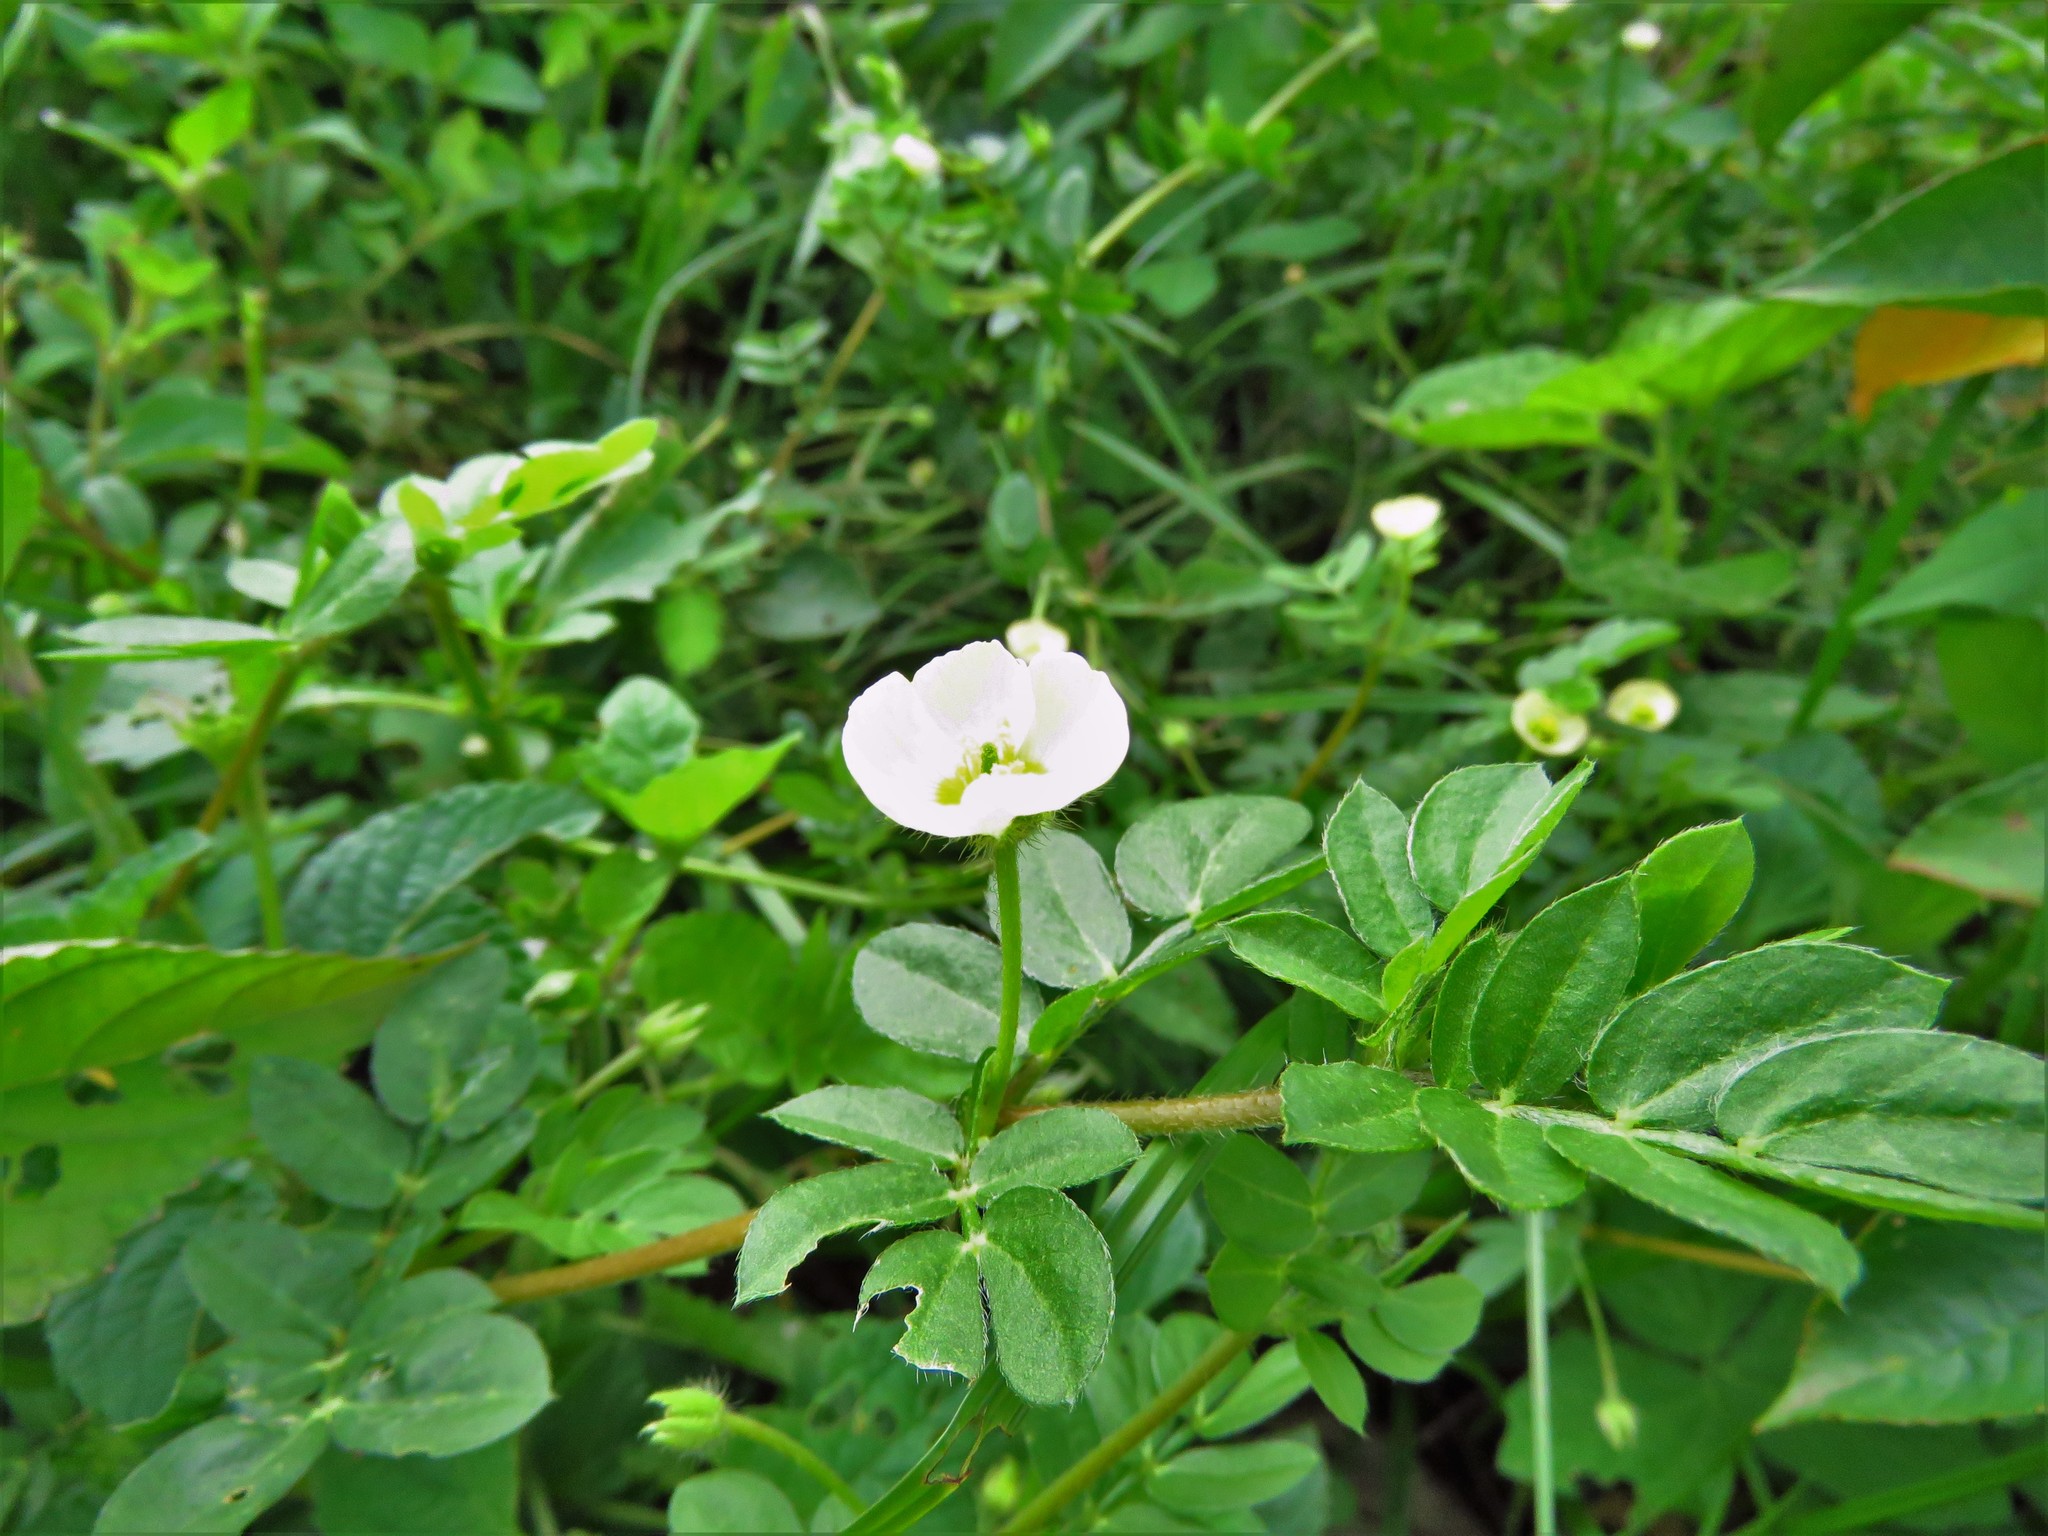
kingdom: Plantae
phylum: Tracheophyta
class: Magnoliopsida
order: Zygophyllales
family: Zygophyllaceae
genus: Kallstroemia
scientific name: Kallstroemia maxima
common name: Big caltropa
